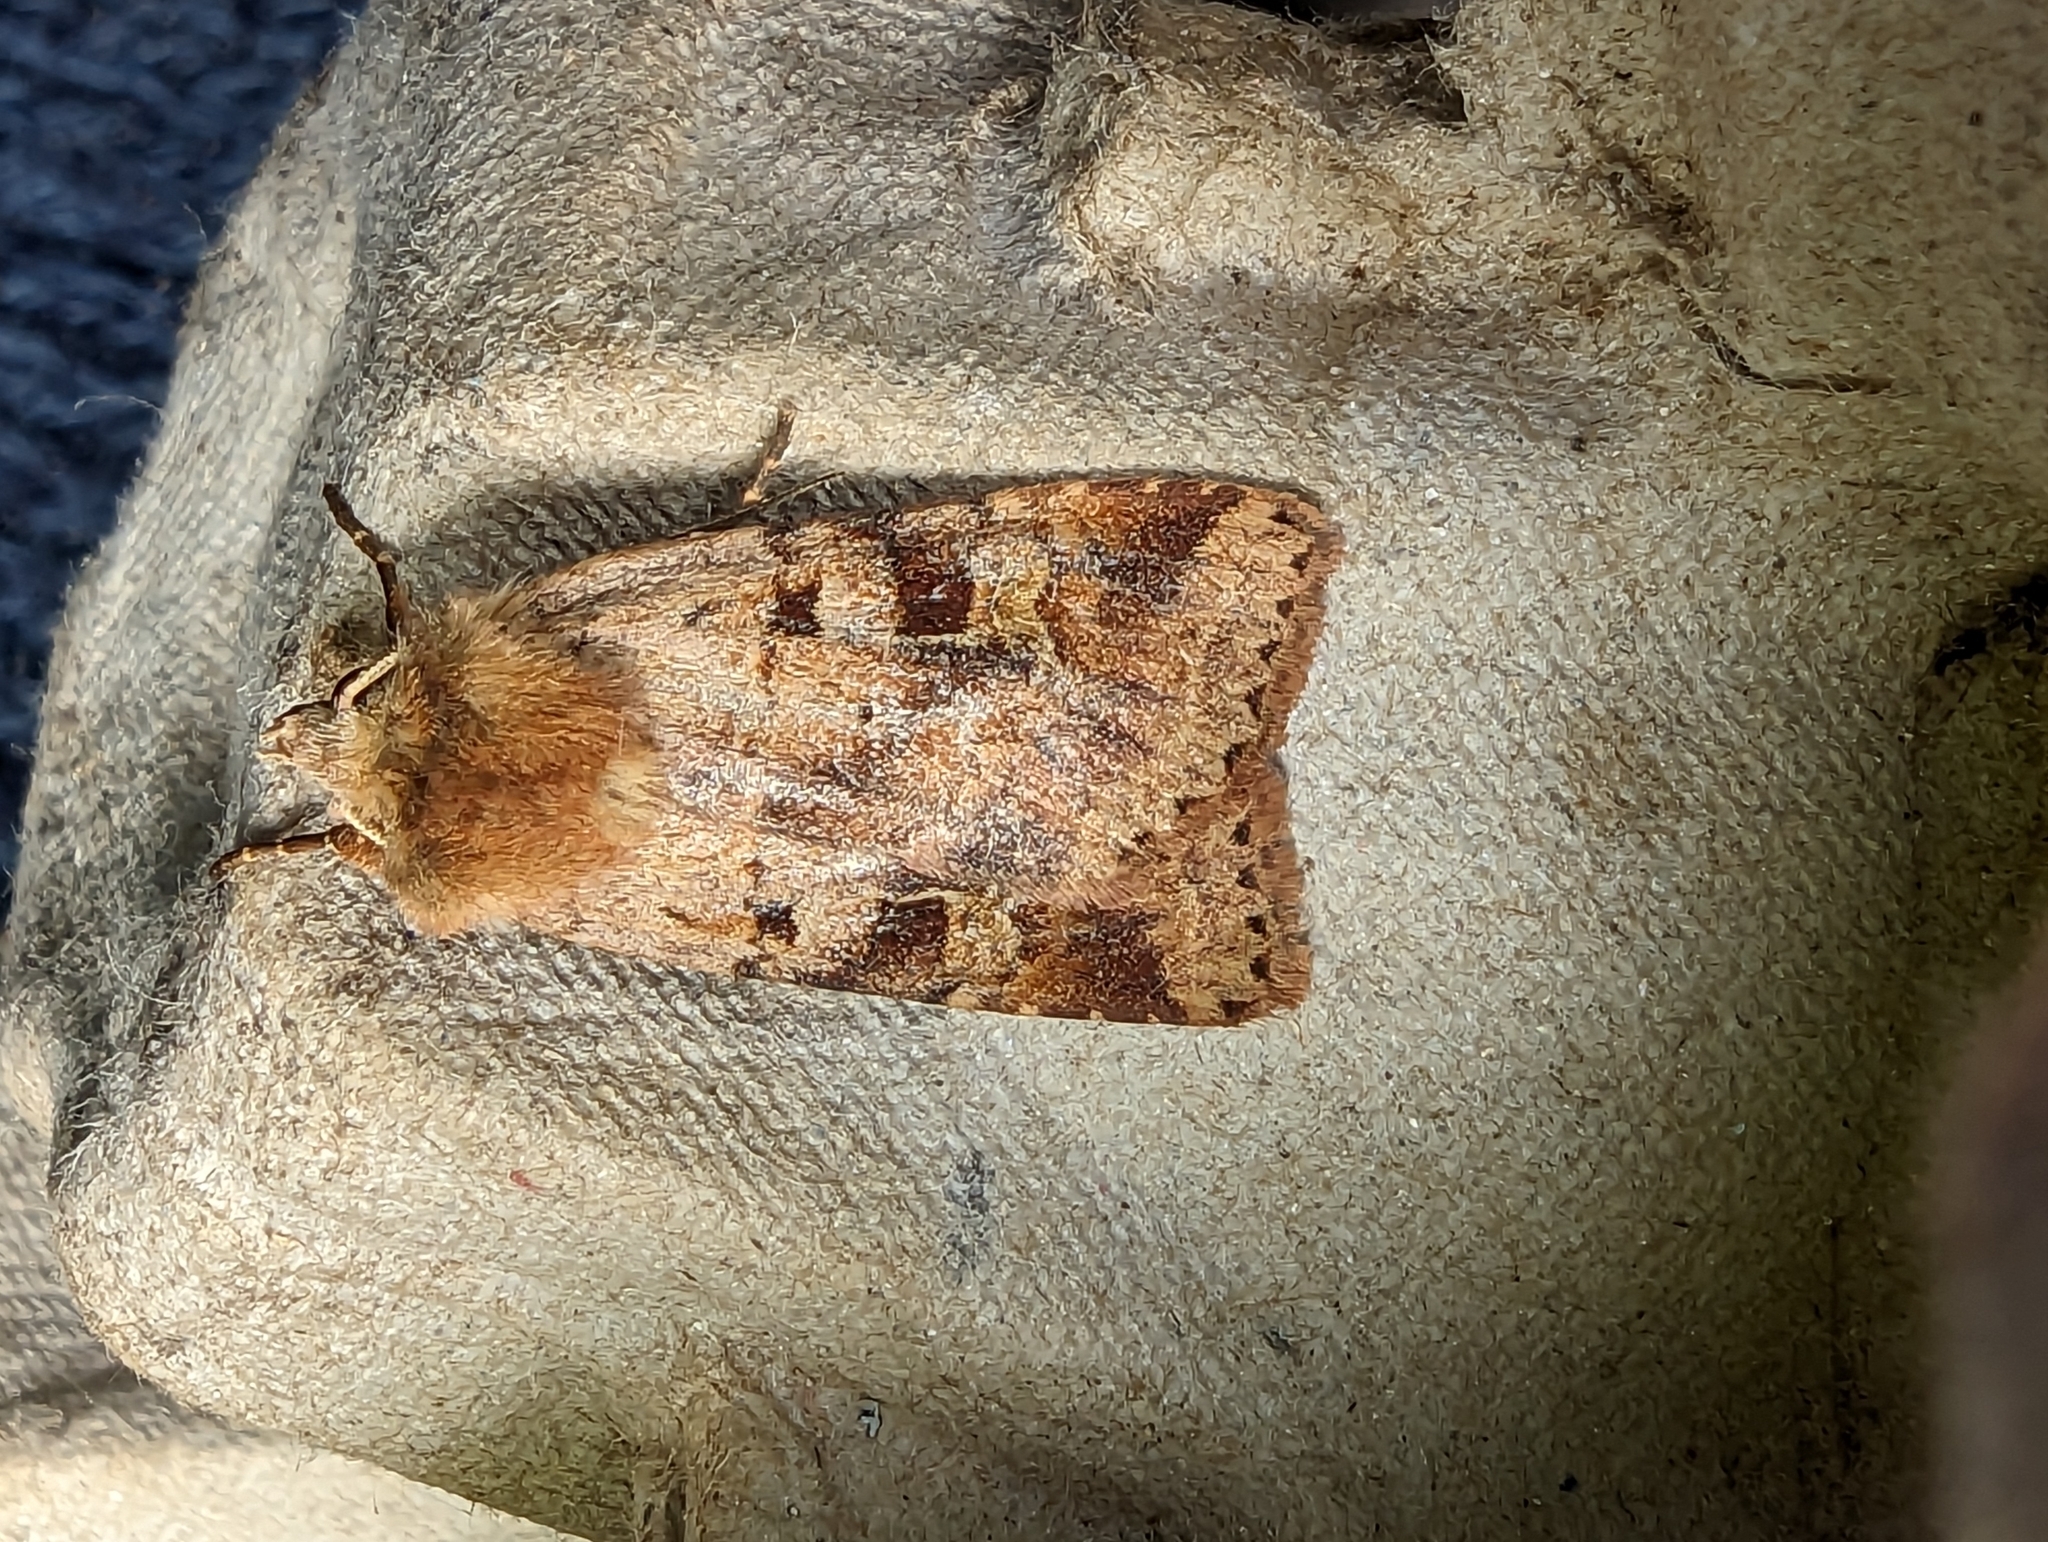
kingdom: Animalia
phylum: Arthropoda
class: Insecta
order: Lepidoptera
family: Noctuidae
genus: Diarsia
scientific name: Diarsia mendica
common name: Ingrailed clay
